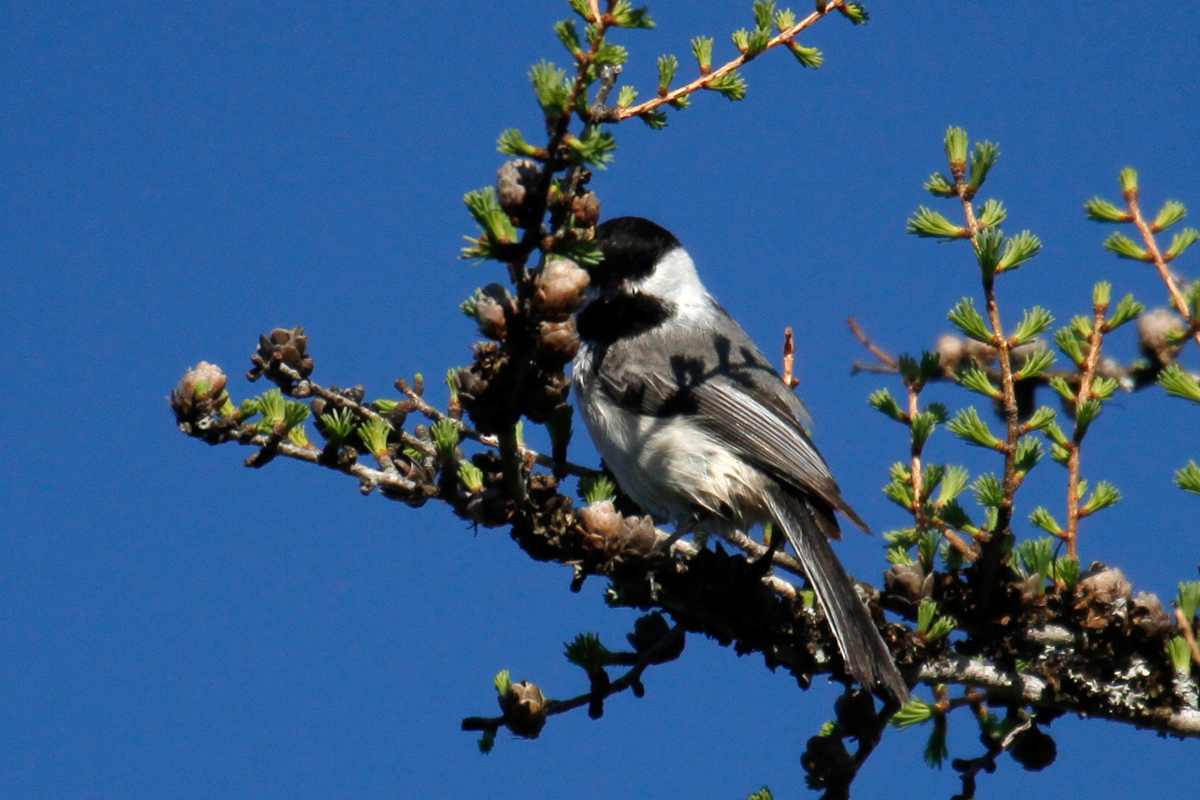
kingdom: Animalia
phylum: Chordata
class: Aves
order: Passeriformes
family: Paridae
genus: Poecile
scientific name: Poecile atricapillus
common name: Black-capped chickadee
